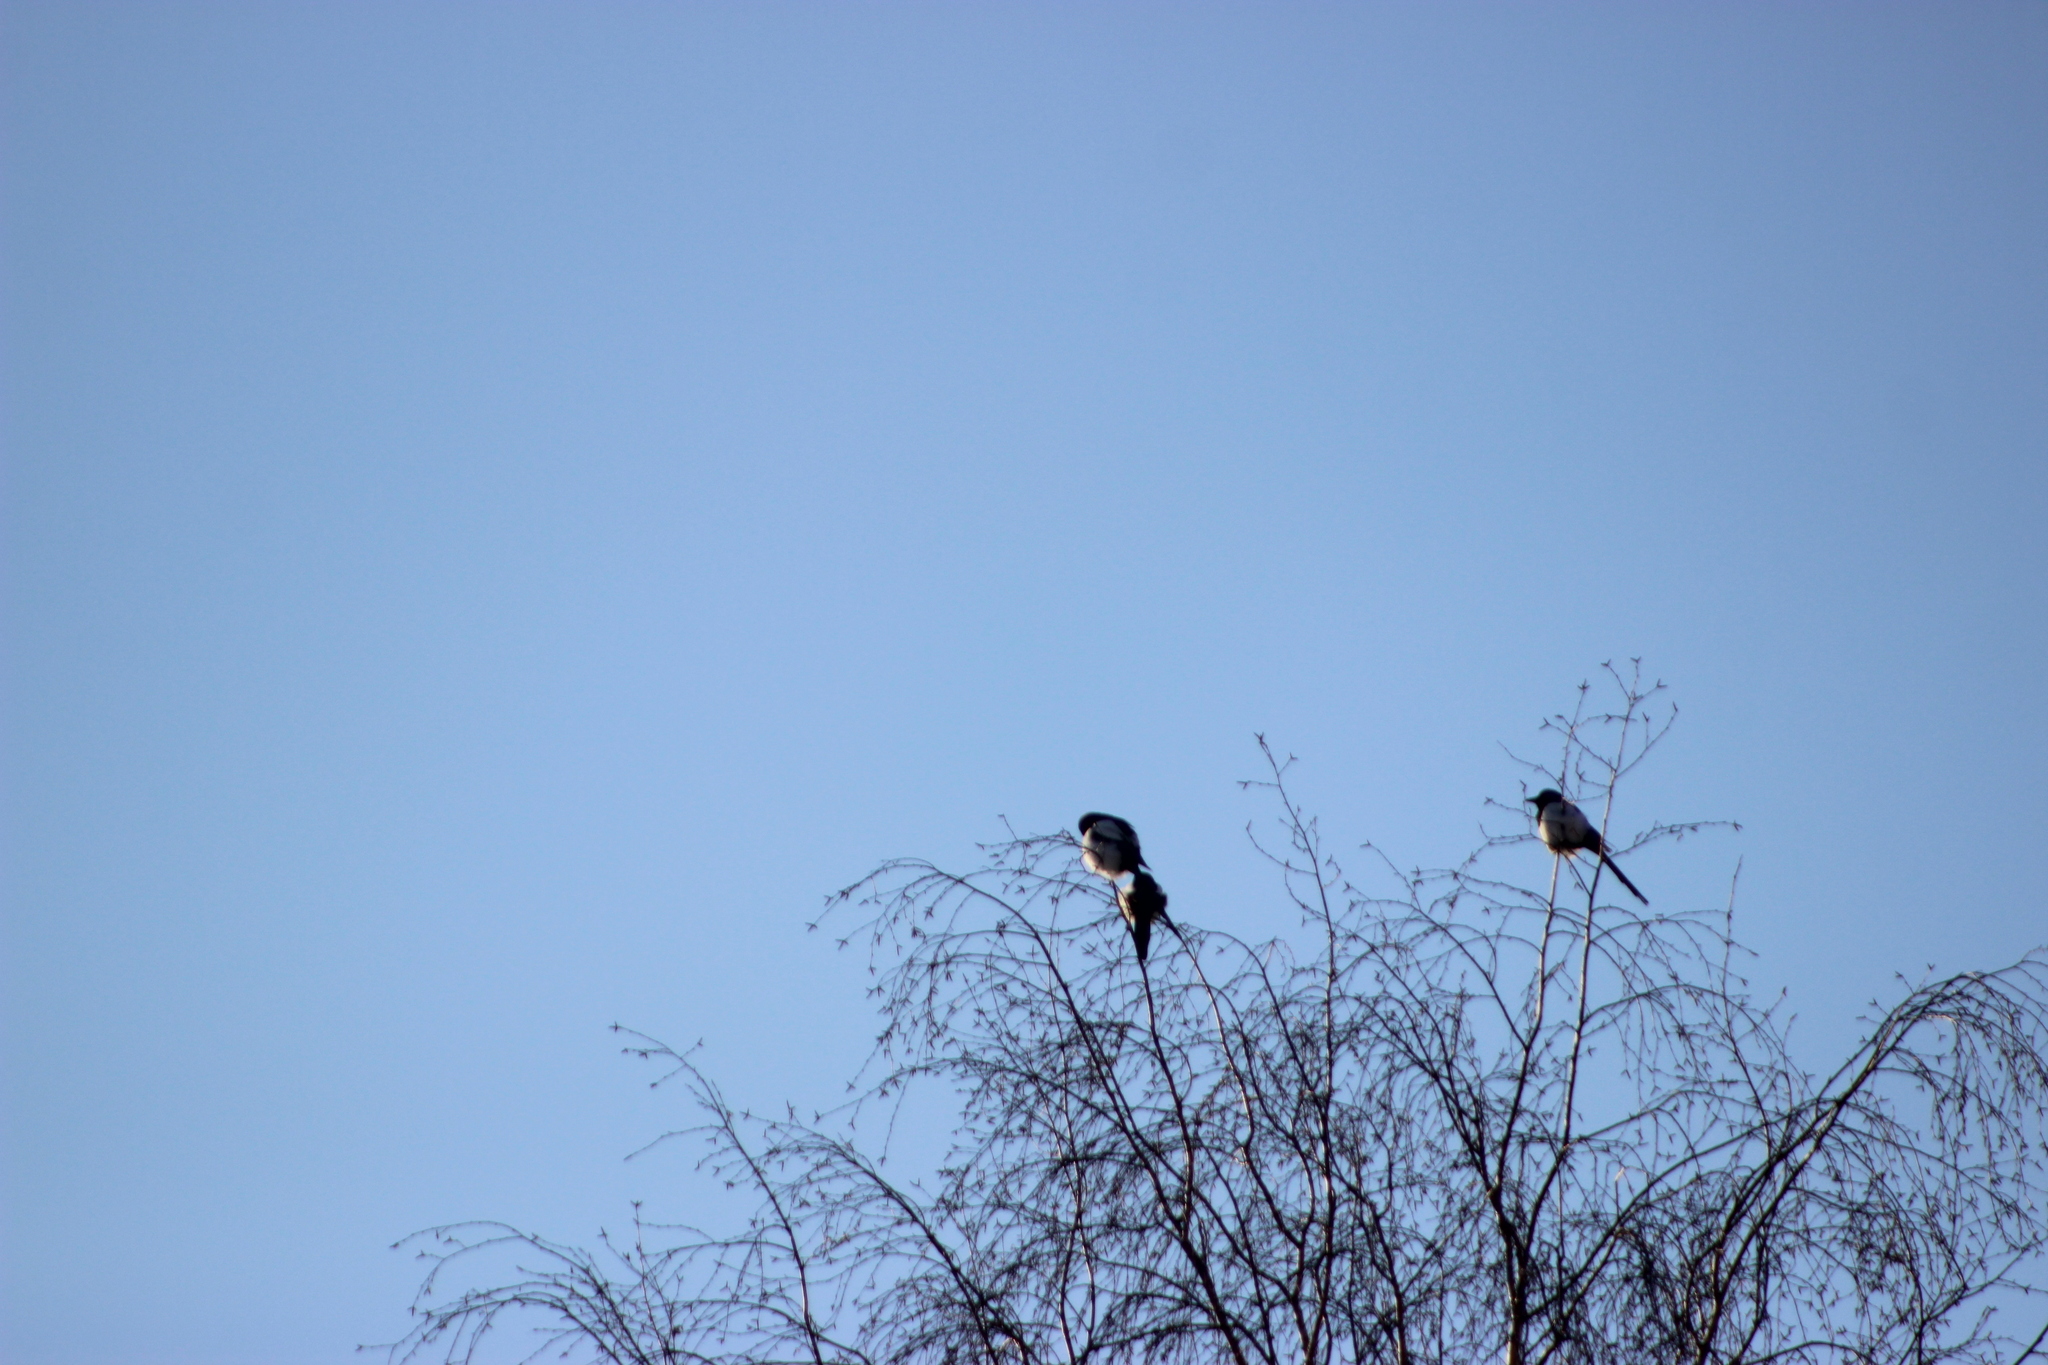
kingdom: Animalia
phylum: Chordata
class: Aves
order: Passeriformes
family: Corvidae
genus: Pica
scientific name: Pica pica
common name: Eurasian magpie
